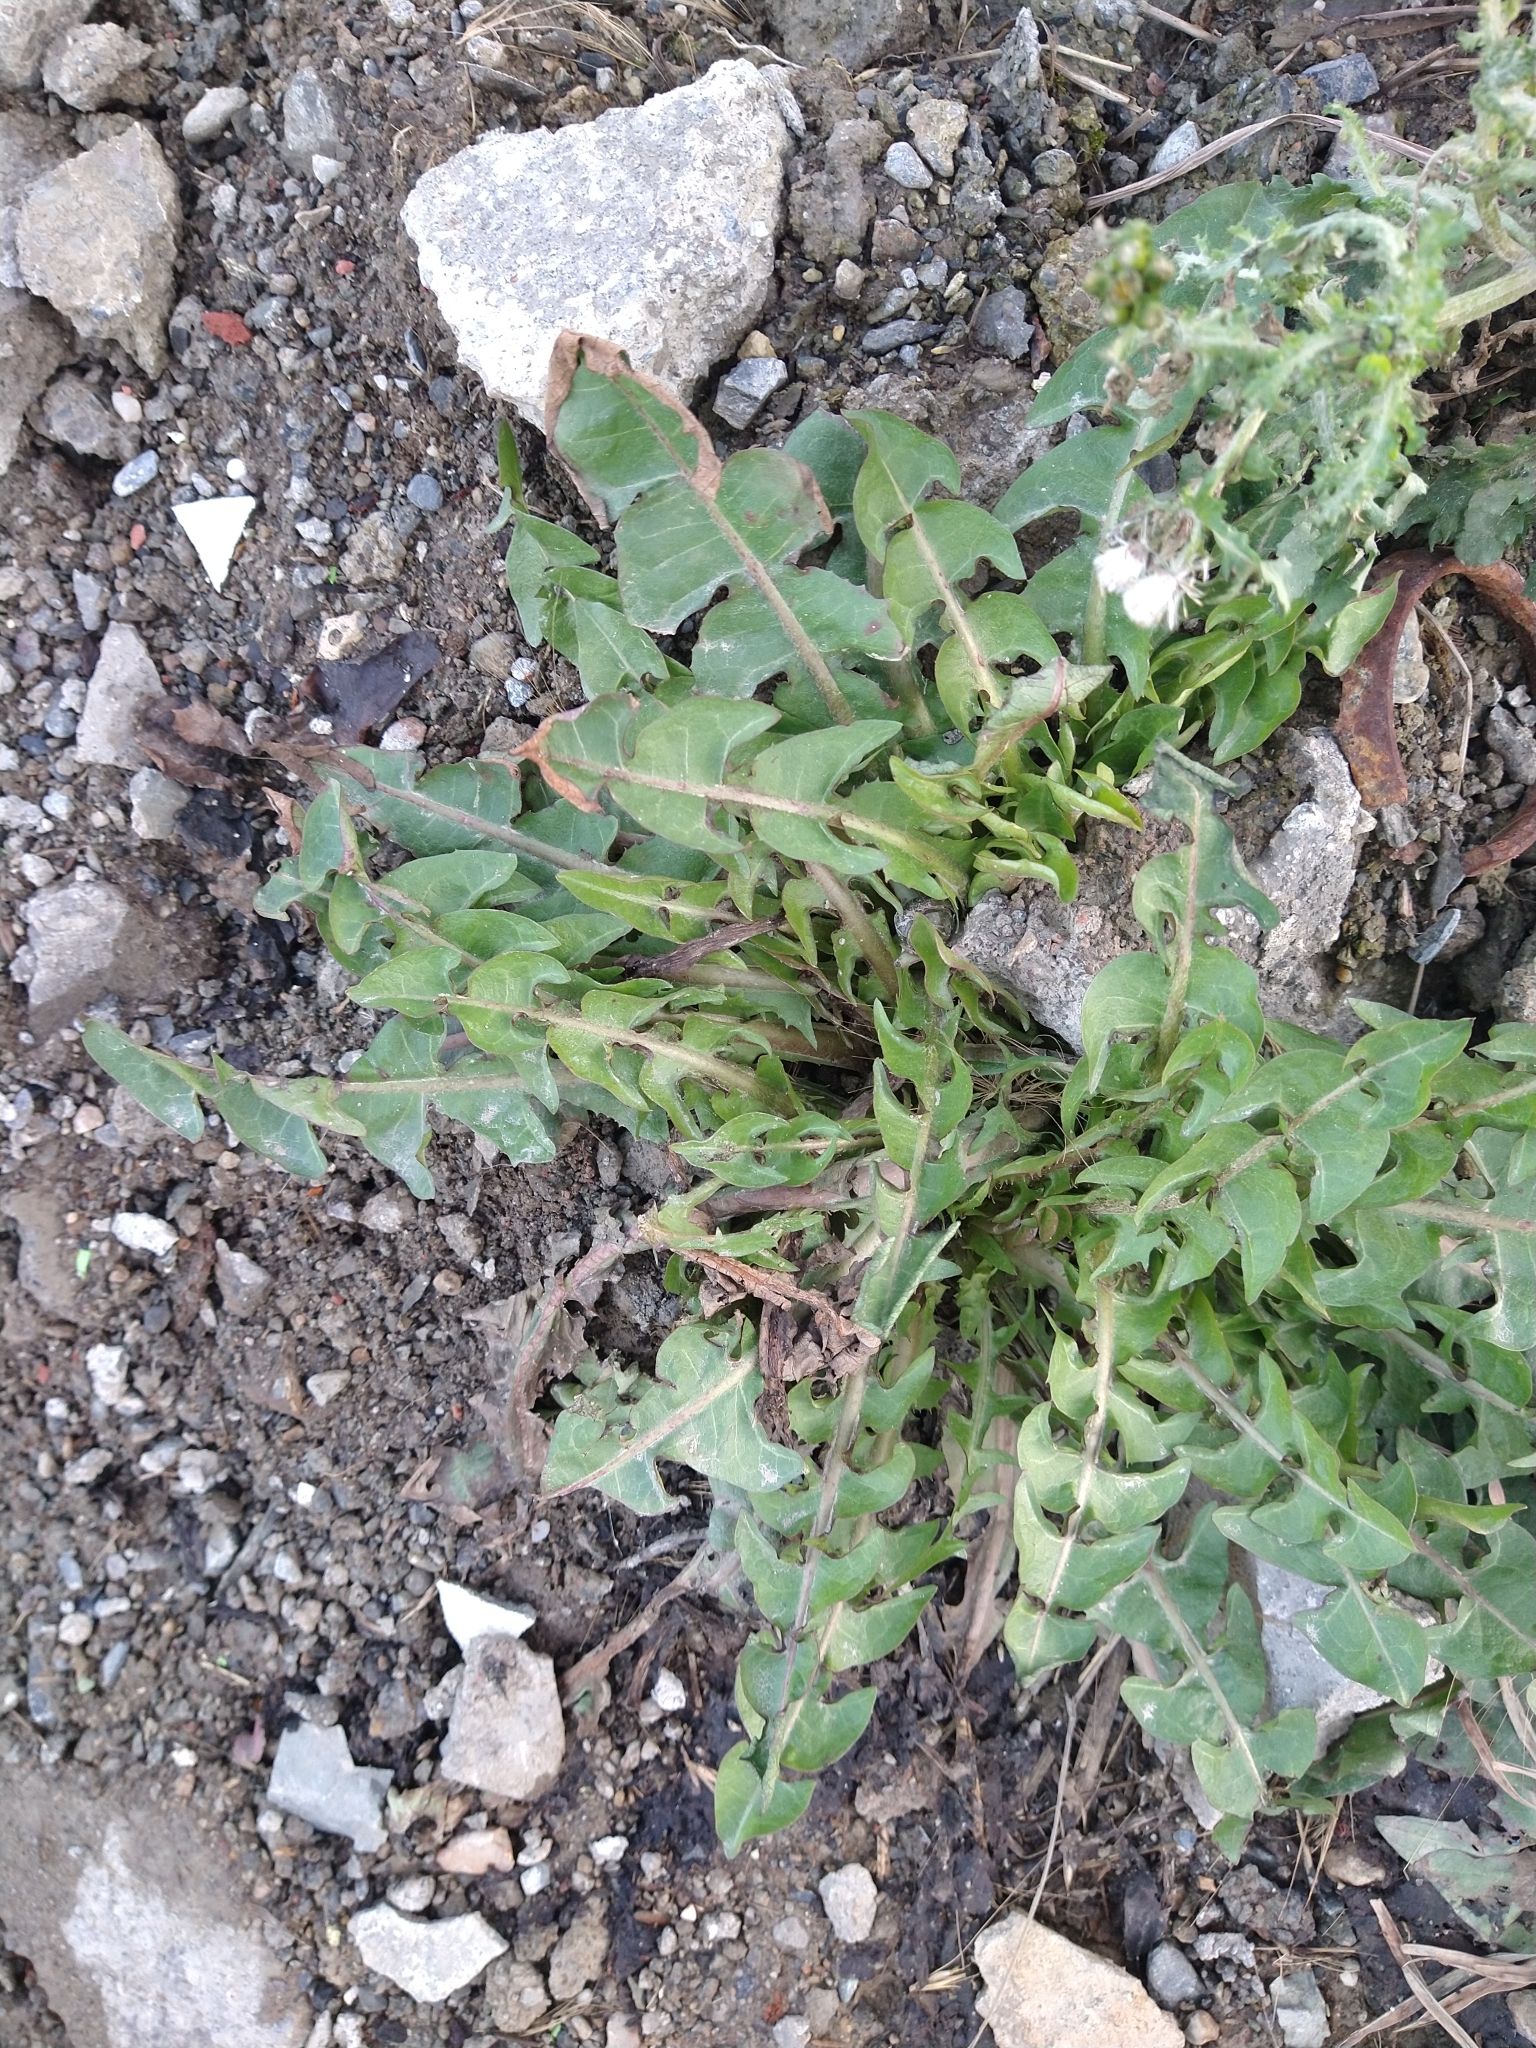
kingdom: Plantae
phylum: Tracheophyta
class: Magnoliopsida
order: Asterales
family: Asteraceae
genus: Taraxacum
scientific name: Taraxacum officinale
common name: Common dandelion
